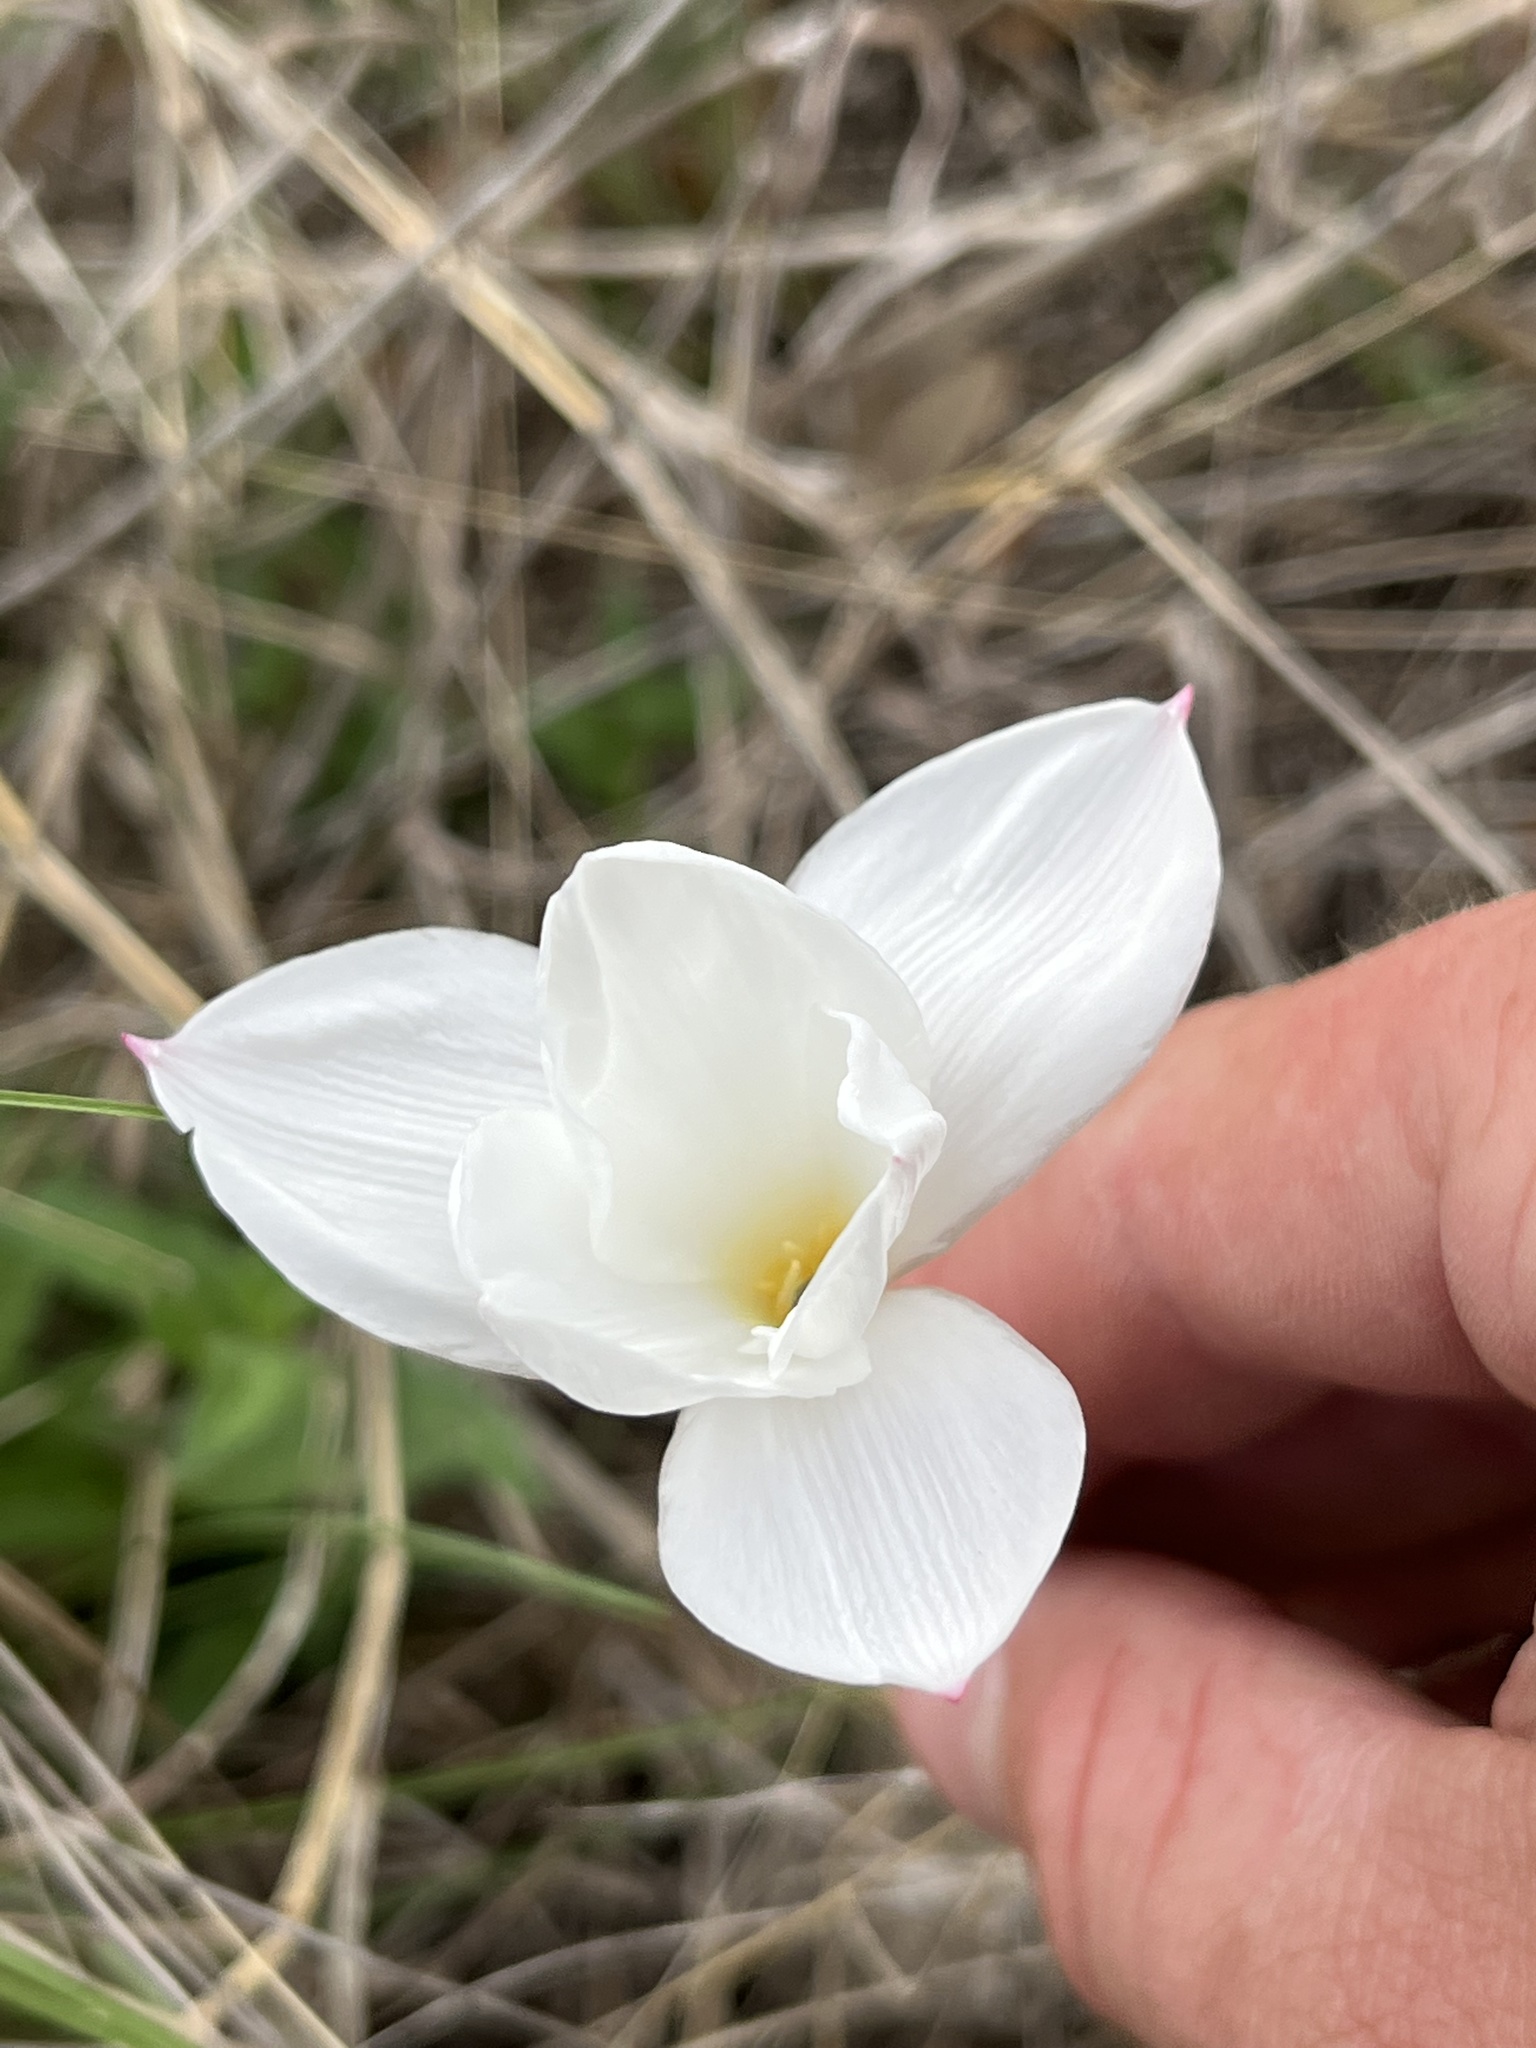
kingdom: Plantae
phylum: Tracheophyta
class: Liliopsida
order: Asparagales
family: Amaryllidaceae
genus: Zephyranthes
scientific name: Zephyranthes drummondii
